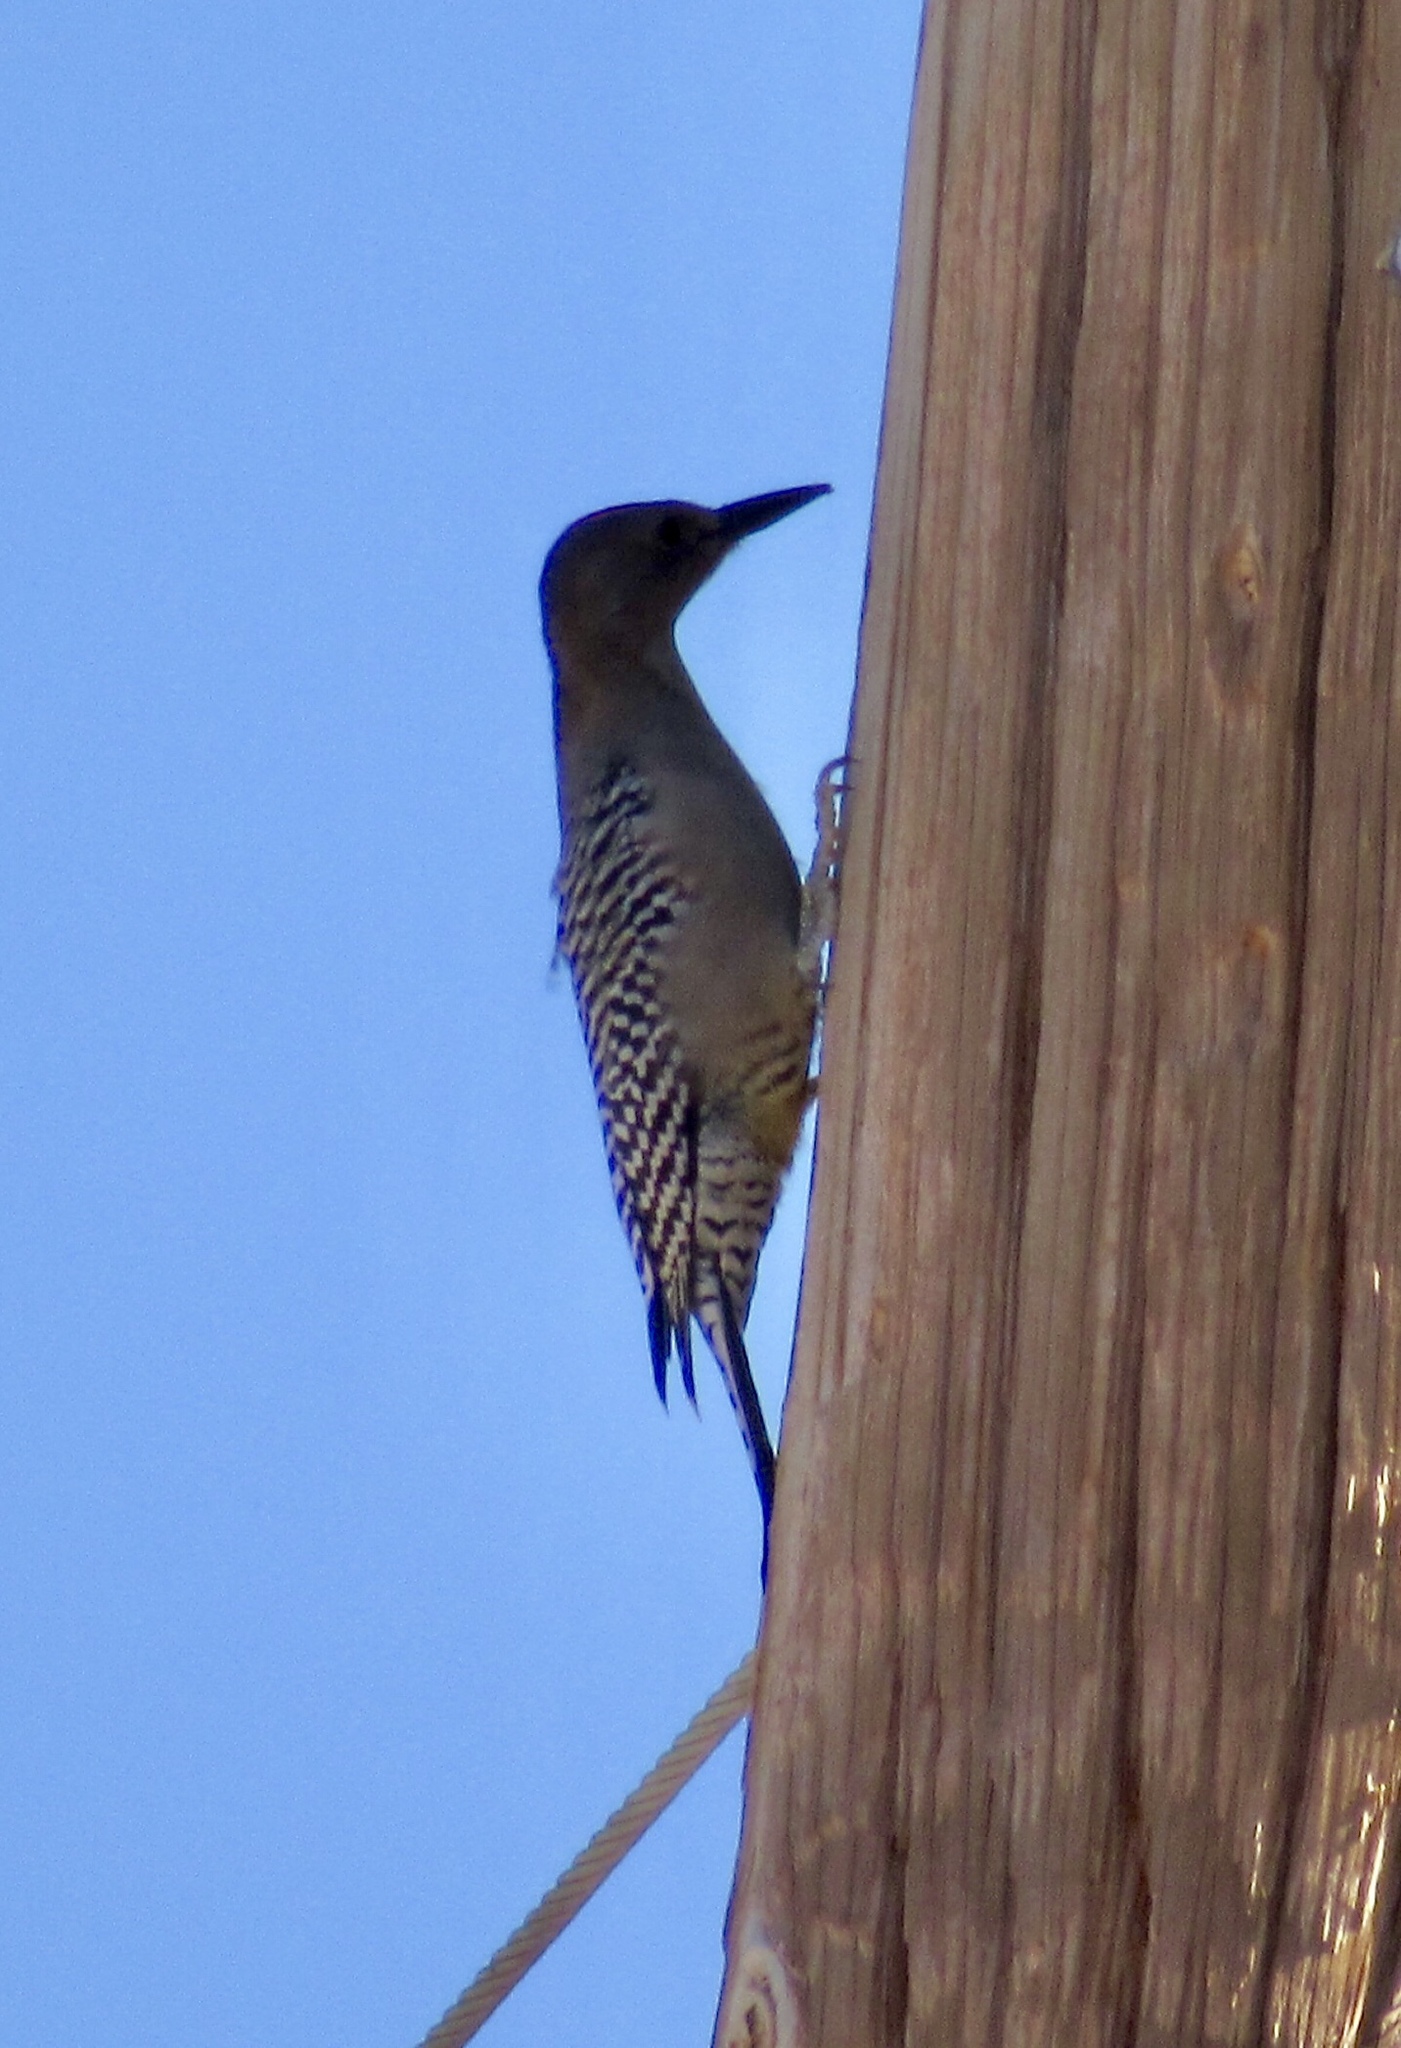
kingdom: Animalia
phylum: Chordata
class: Aves
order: Piciformes
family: Picidae
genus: Melanerpes
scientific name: Melanerpes uropygialis
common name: Gila woodpecker
